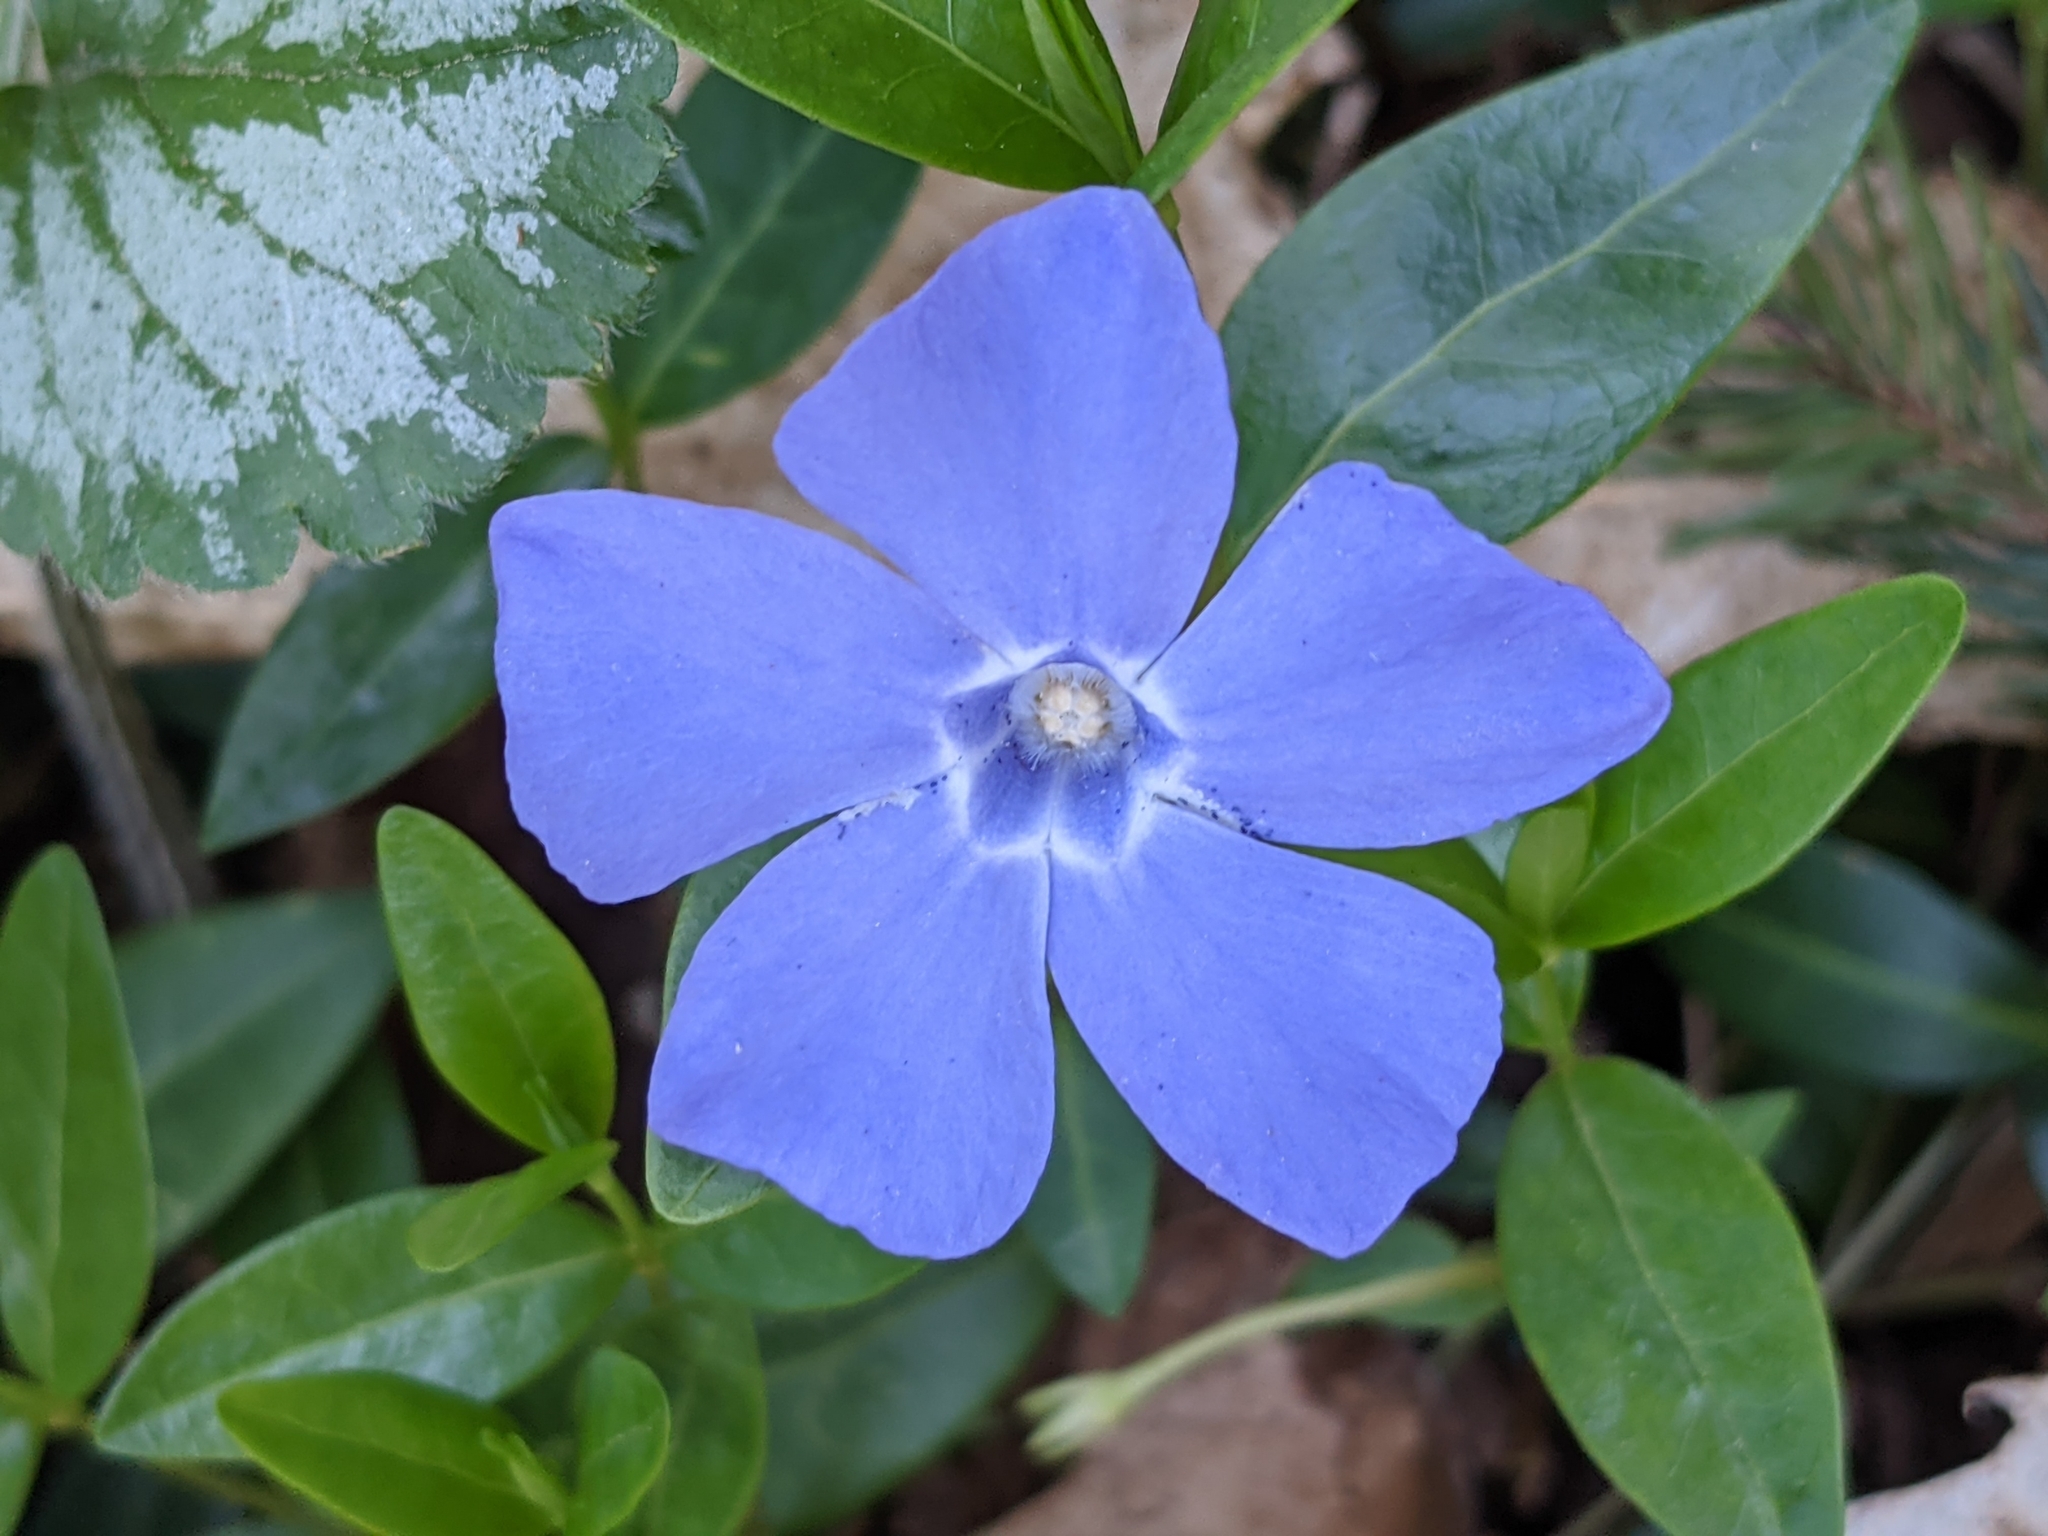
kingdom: Plantae
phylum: Tracheophyta
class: Magnoliopsida
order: Gentianales
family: Apocynaceae
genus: Vinca
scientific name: Vinca minor
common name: Lesser periwinkle
